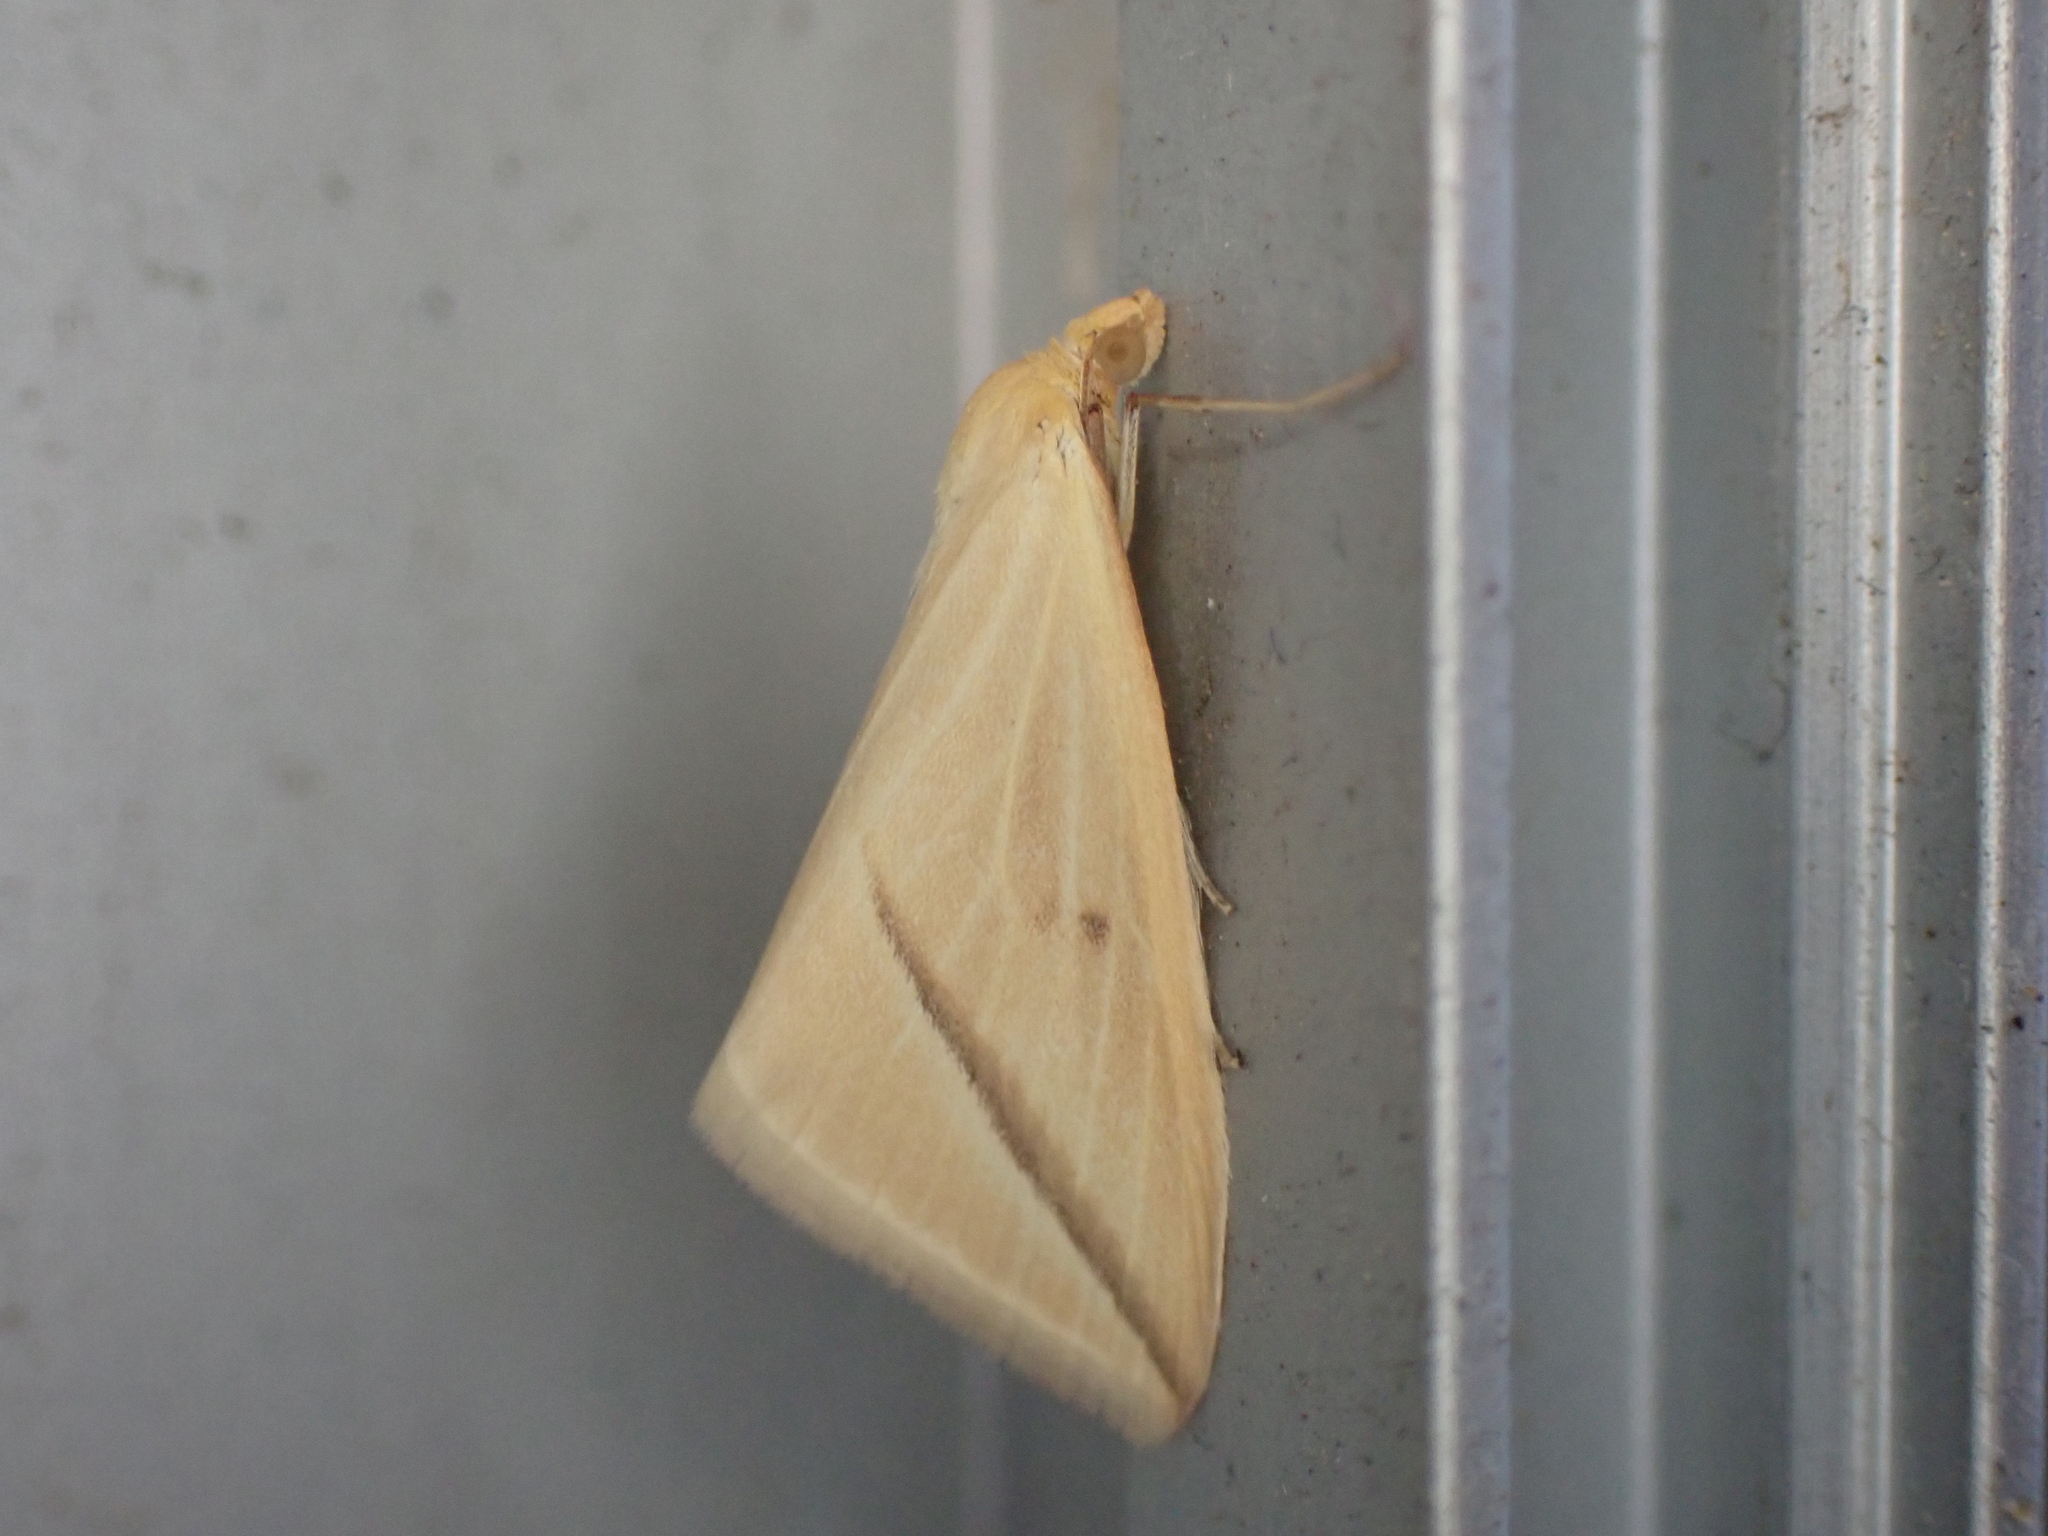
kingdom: Animalia
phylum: Arthropoda
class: Insecta
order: Lepidoptera
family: Geometridae
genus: Rhodometra
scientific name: Rhodometra sacraria
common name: Vestal
